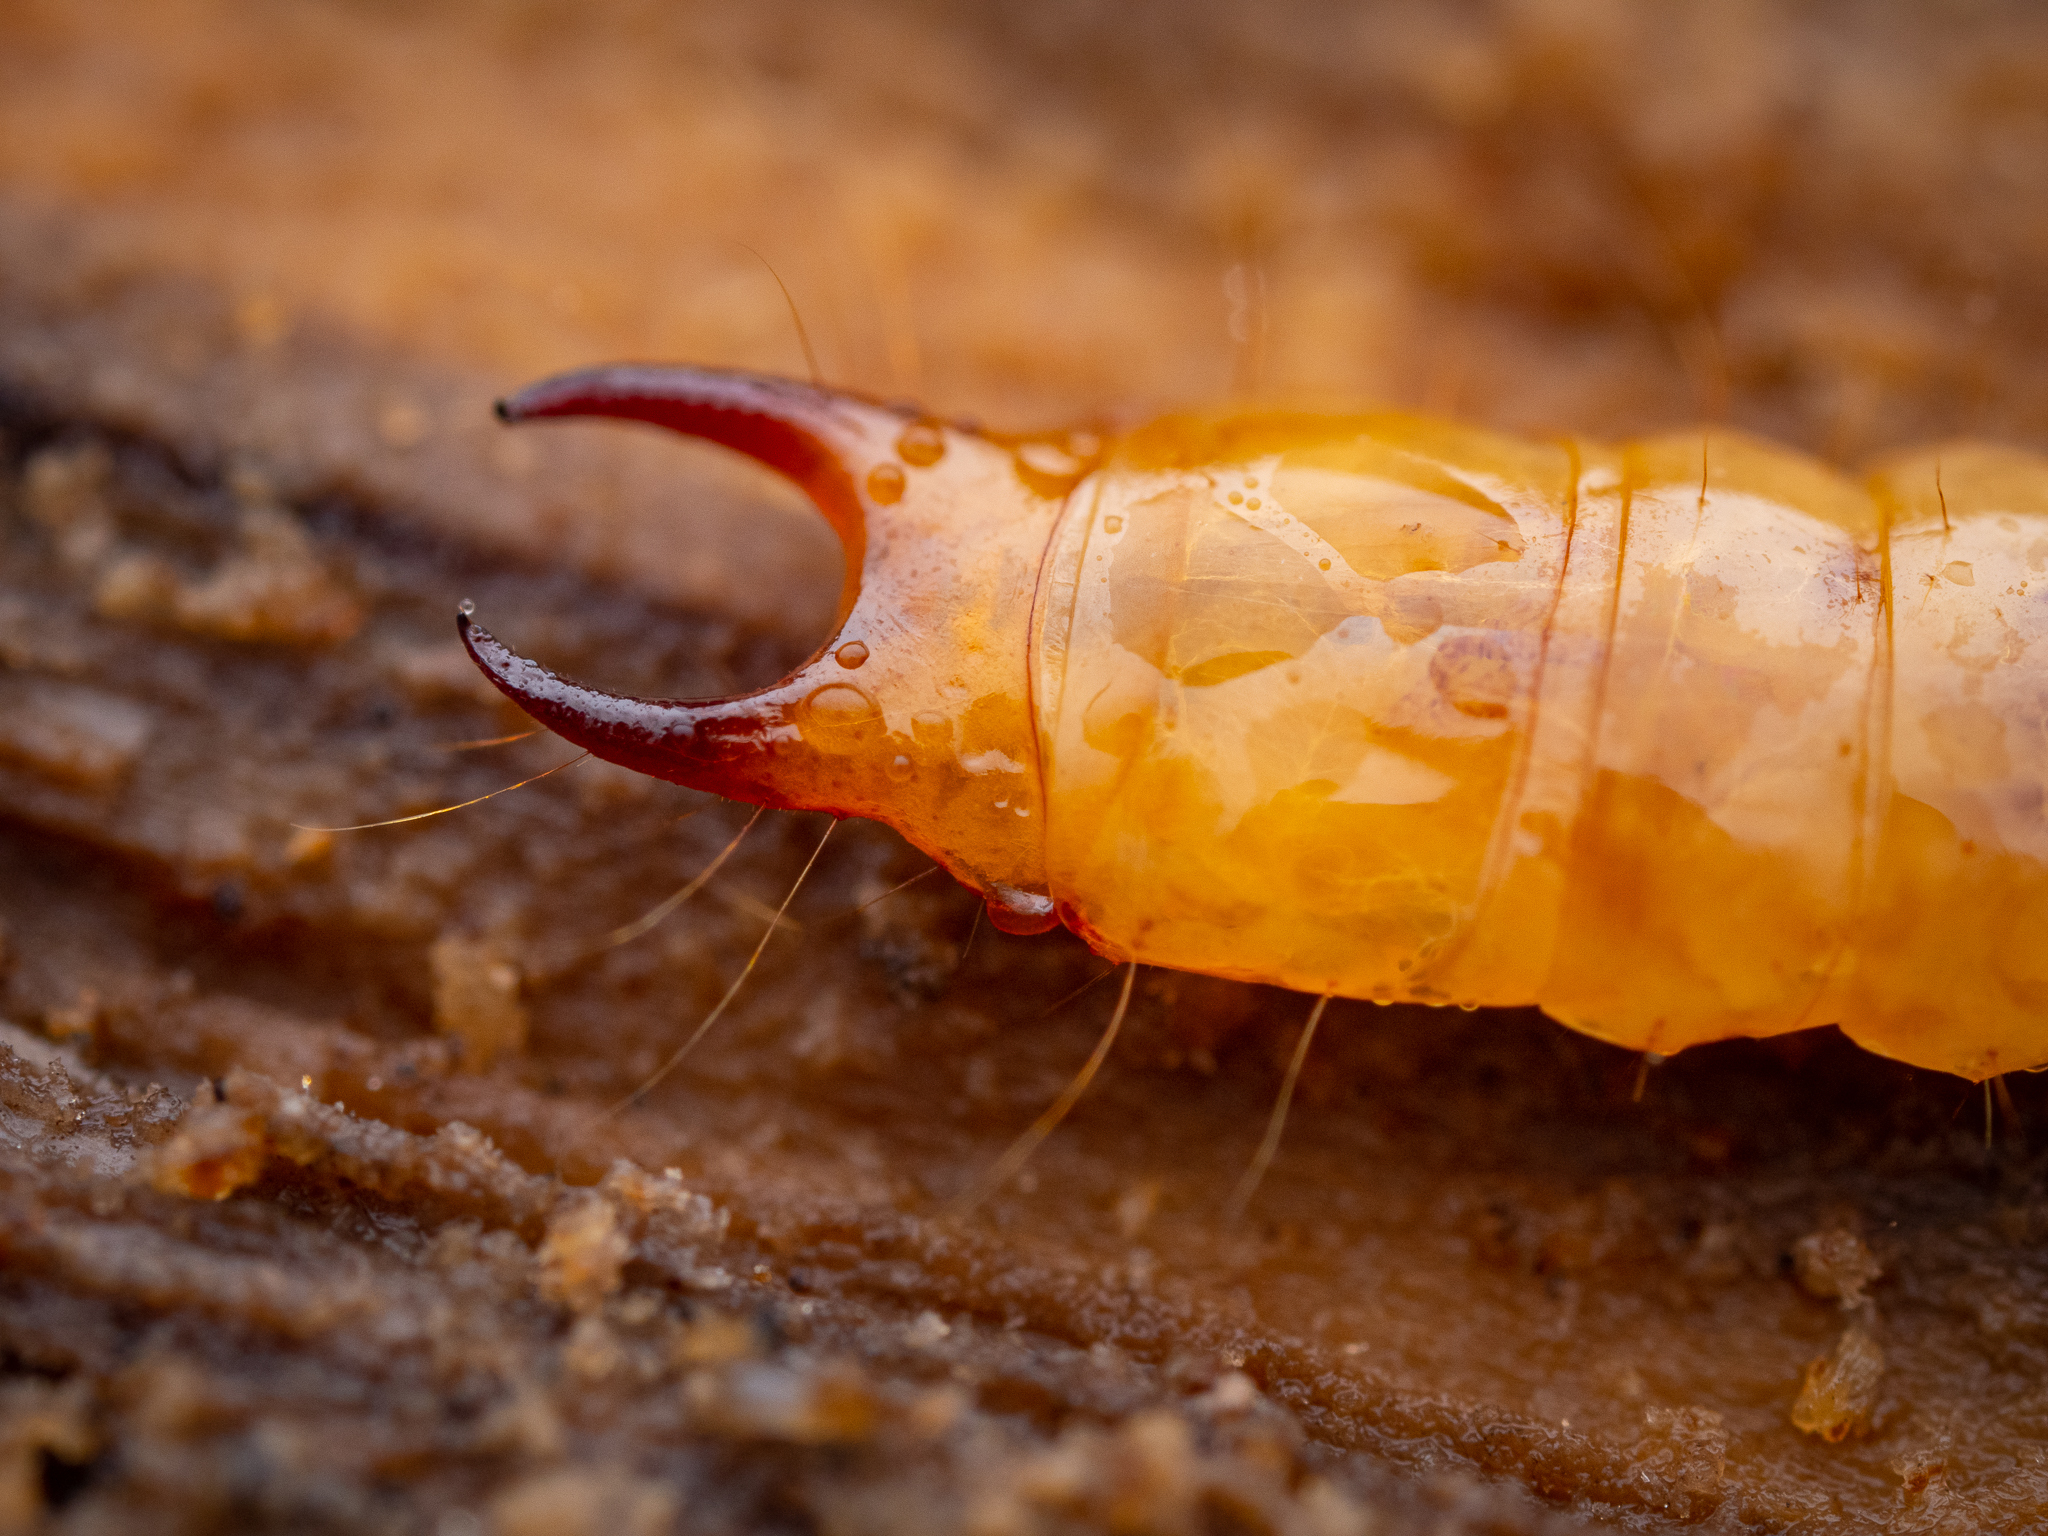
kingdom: Animalia
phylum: Arthropoda
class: Insecta
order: Coleoptera
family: Pyrochroidae
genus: Schizotus
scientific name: Schizotus pectinicornis
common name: Scarce cardinal beetle
